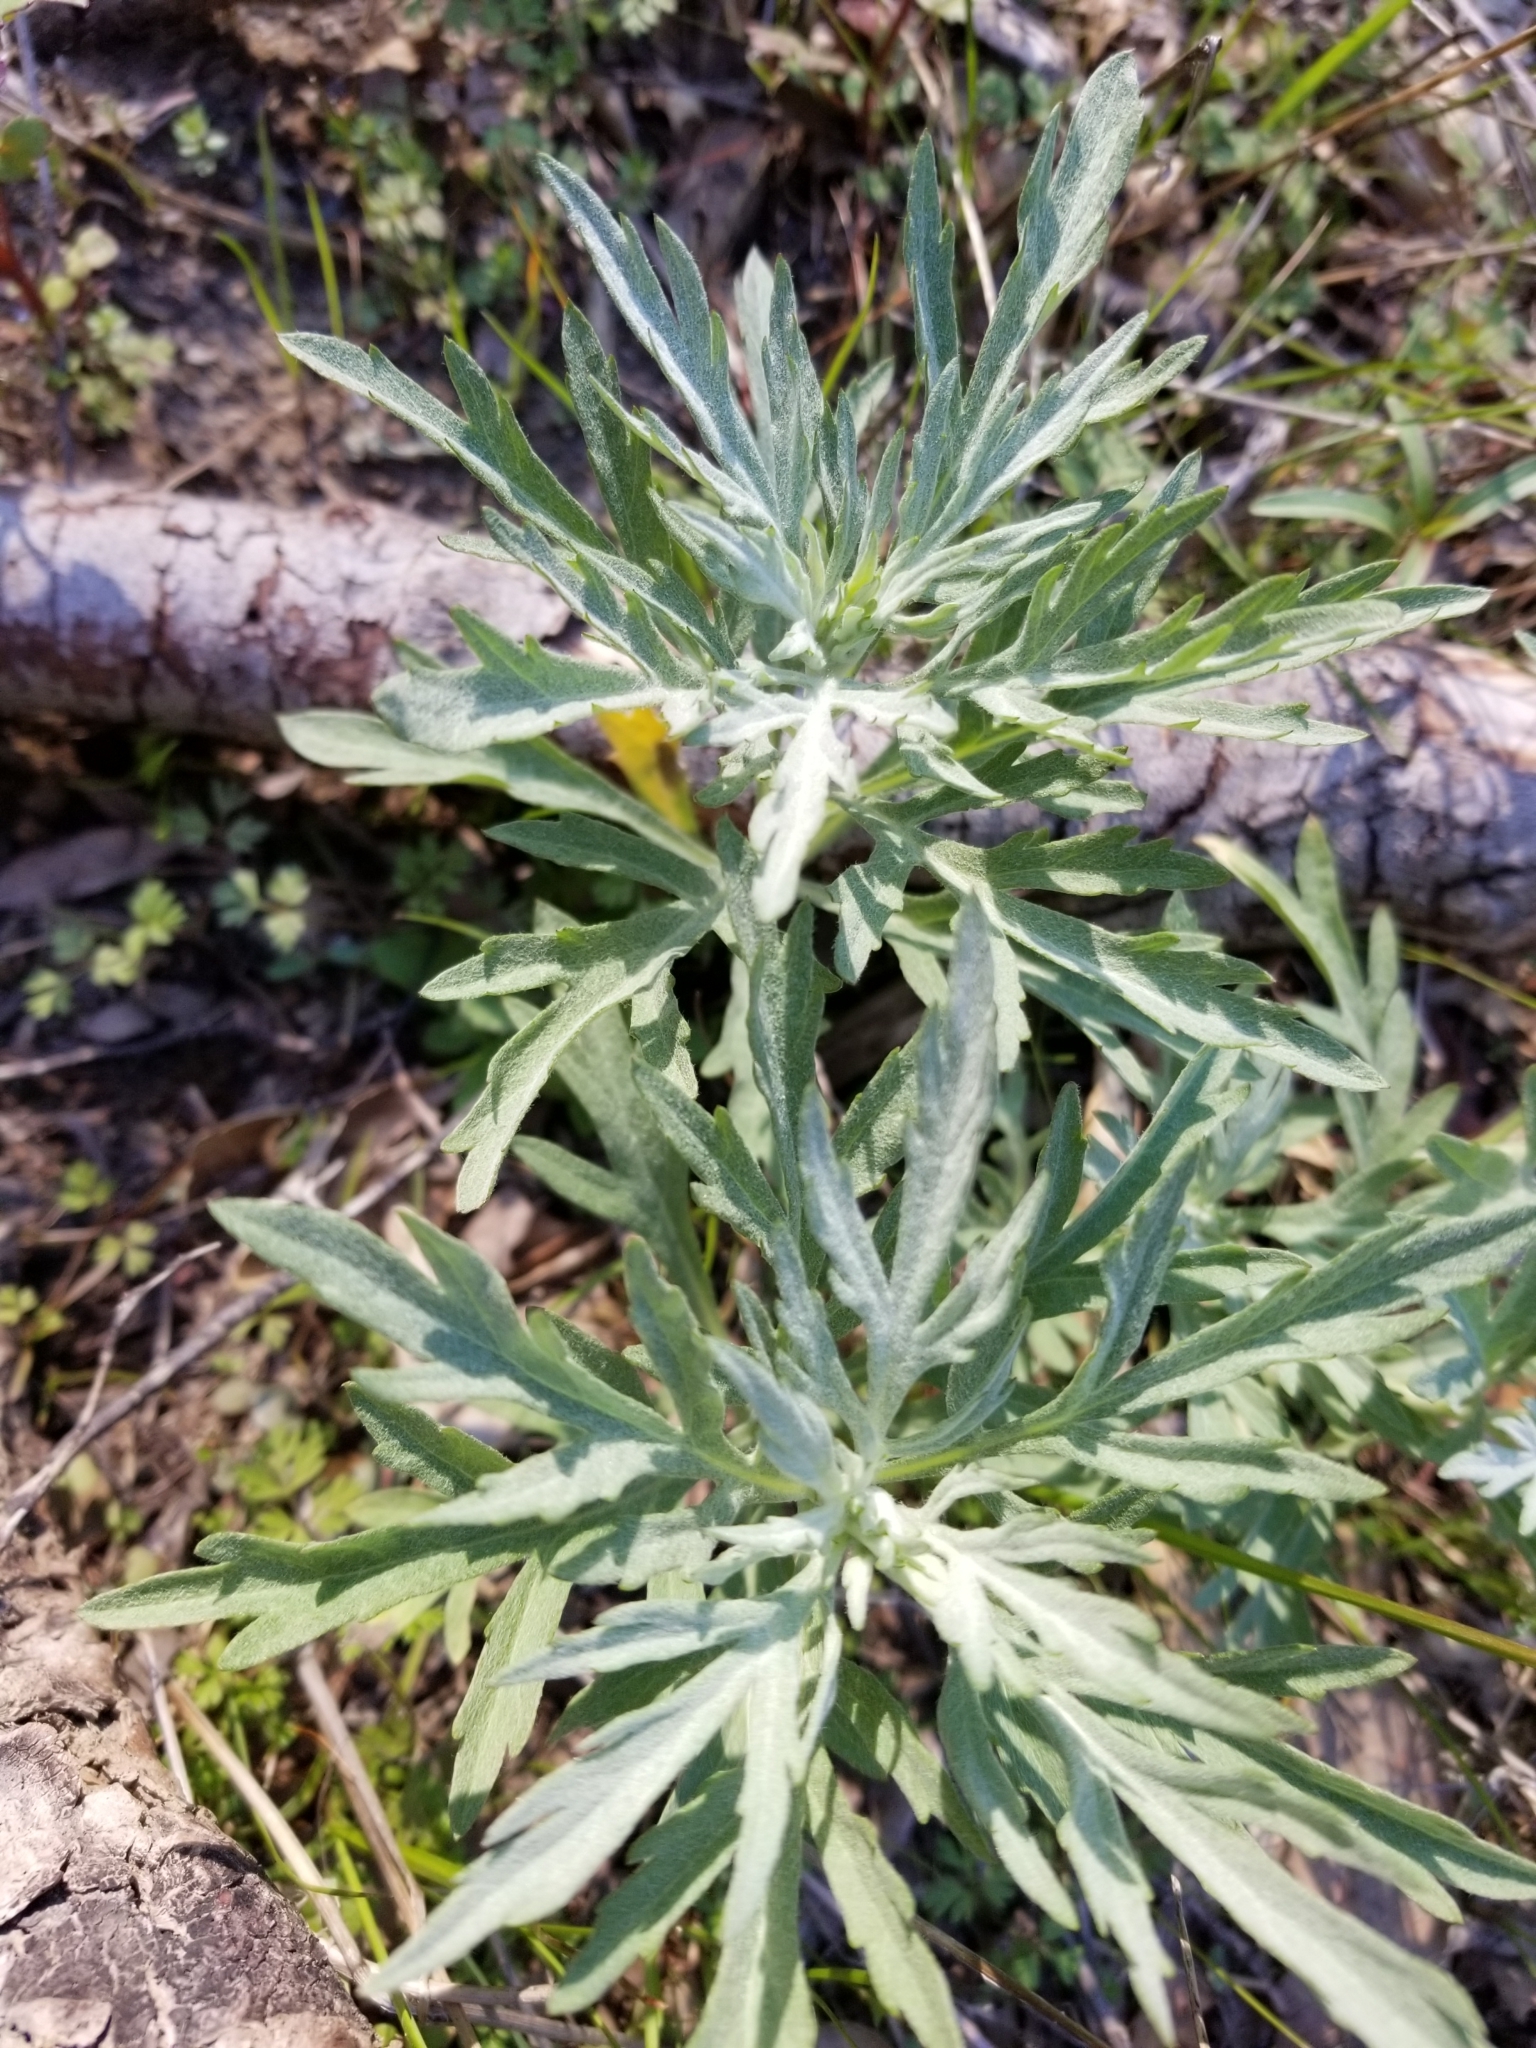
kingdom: Plantae
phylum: Tracheophyta
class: Magnoliopsida
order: Asterales
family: Asteraceae
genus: Artemisia
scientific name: Artemisia douglasiana
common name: Northwest mugwort
